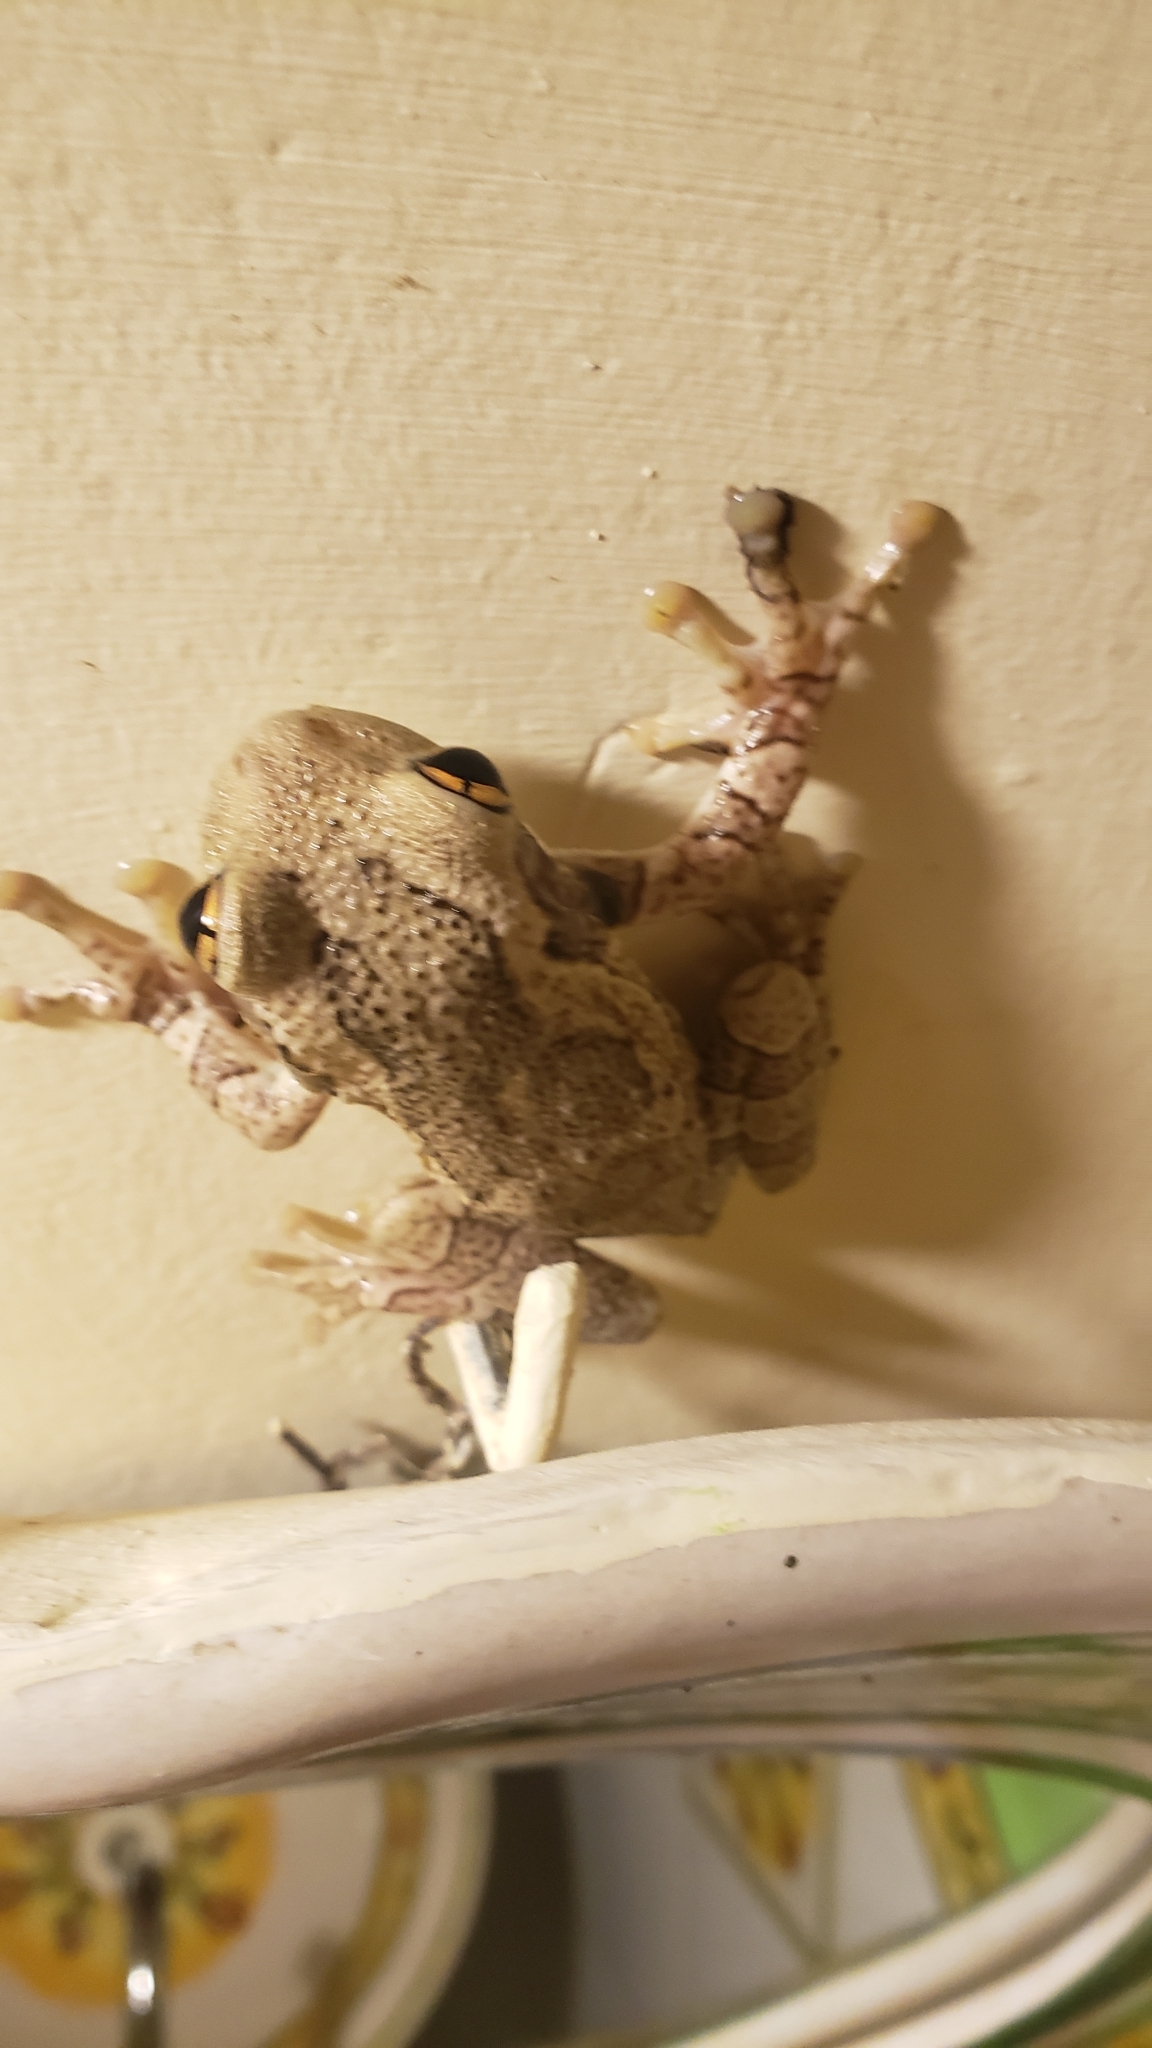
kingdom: Animalia
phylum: Chordata
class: Amphibia
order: Anura
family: Hylidae
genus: Trachycephalus
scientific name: Trachycephalus typhonius
